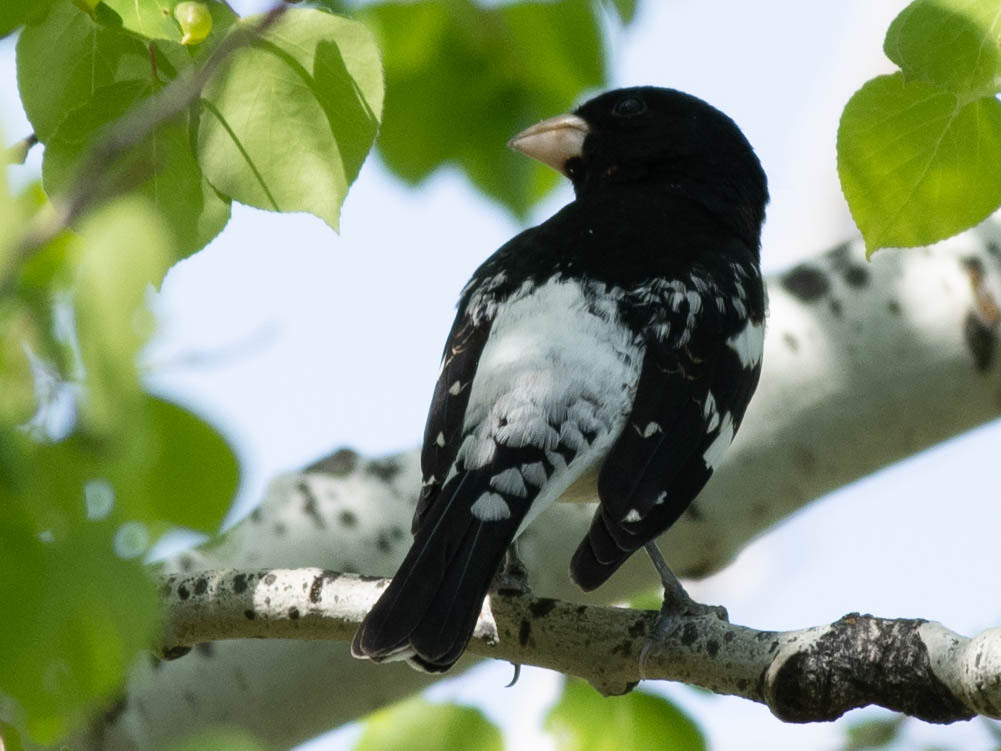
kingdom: Animalia
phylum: Chordata
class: Aves
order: Passeriformes
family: Cardinalidae
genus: Pheucticus
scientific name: Pheucticus ludovicianus
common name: Rose-breasted grosbeak
